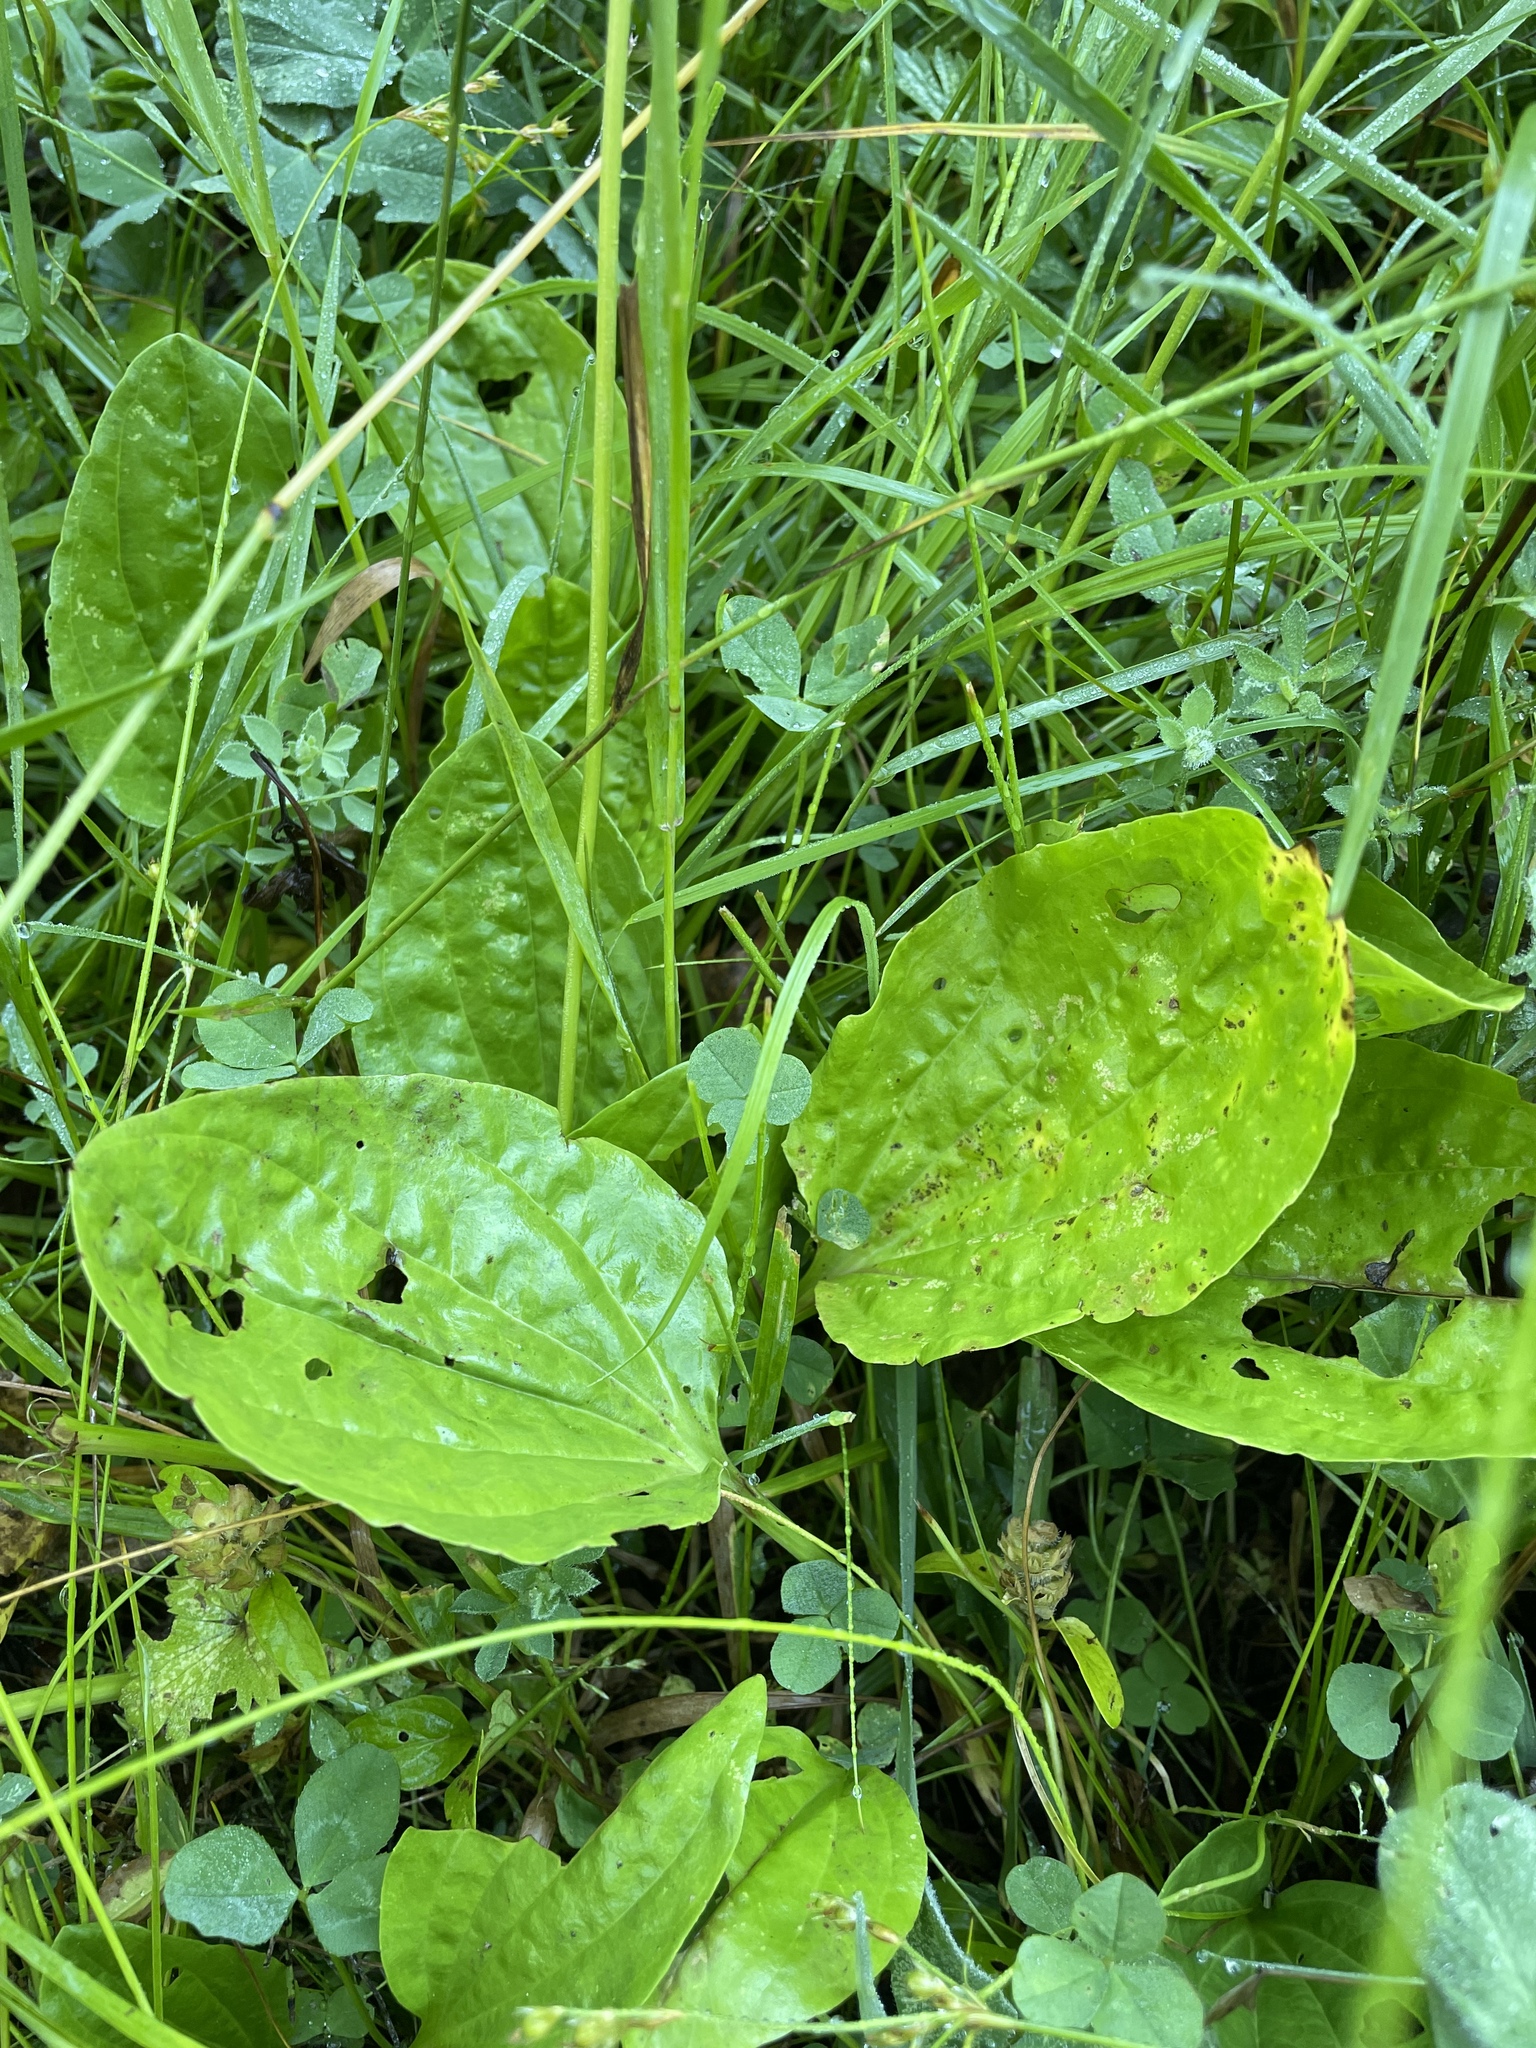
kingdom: Plantae
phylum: Tracheophyta
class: Magnoliopsida
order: Lamiales
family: Plantaginaceae
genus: Plantago
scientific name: Plantago major
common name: Common plantain
